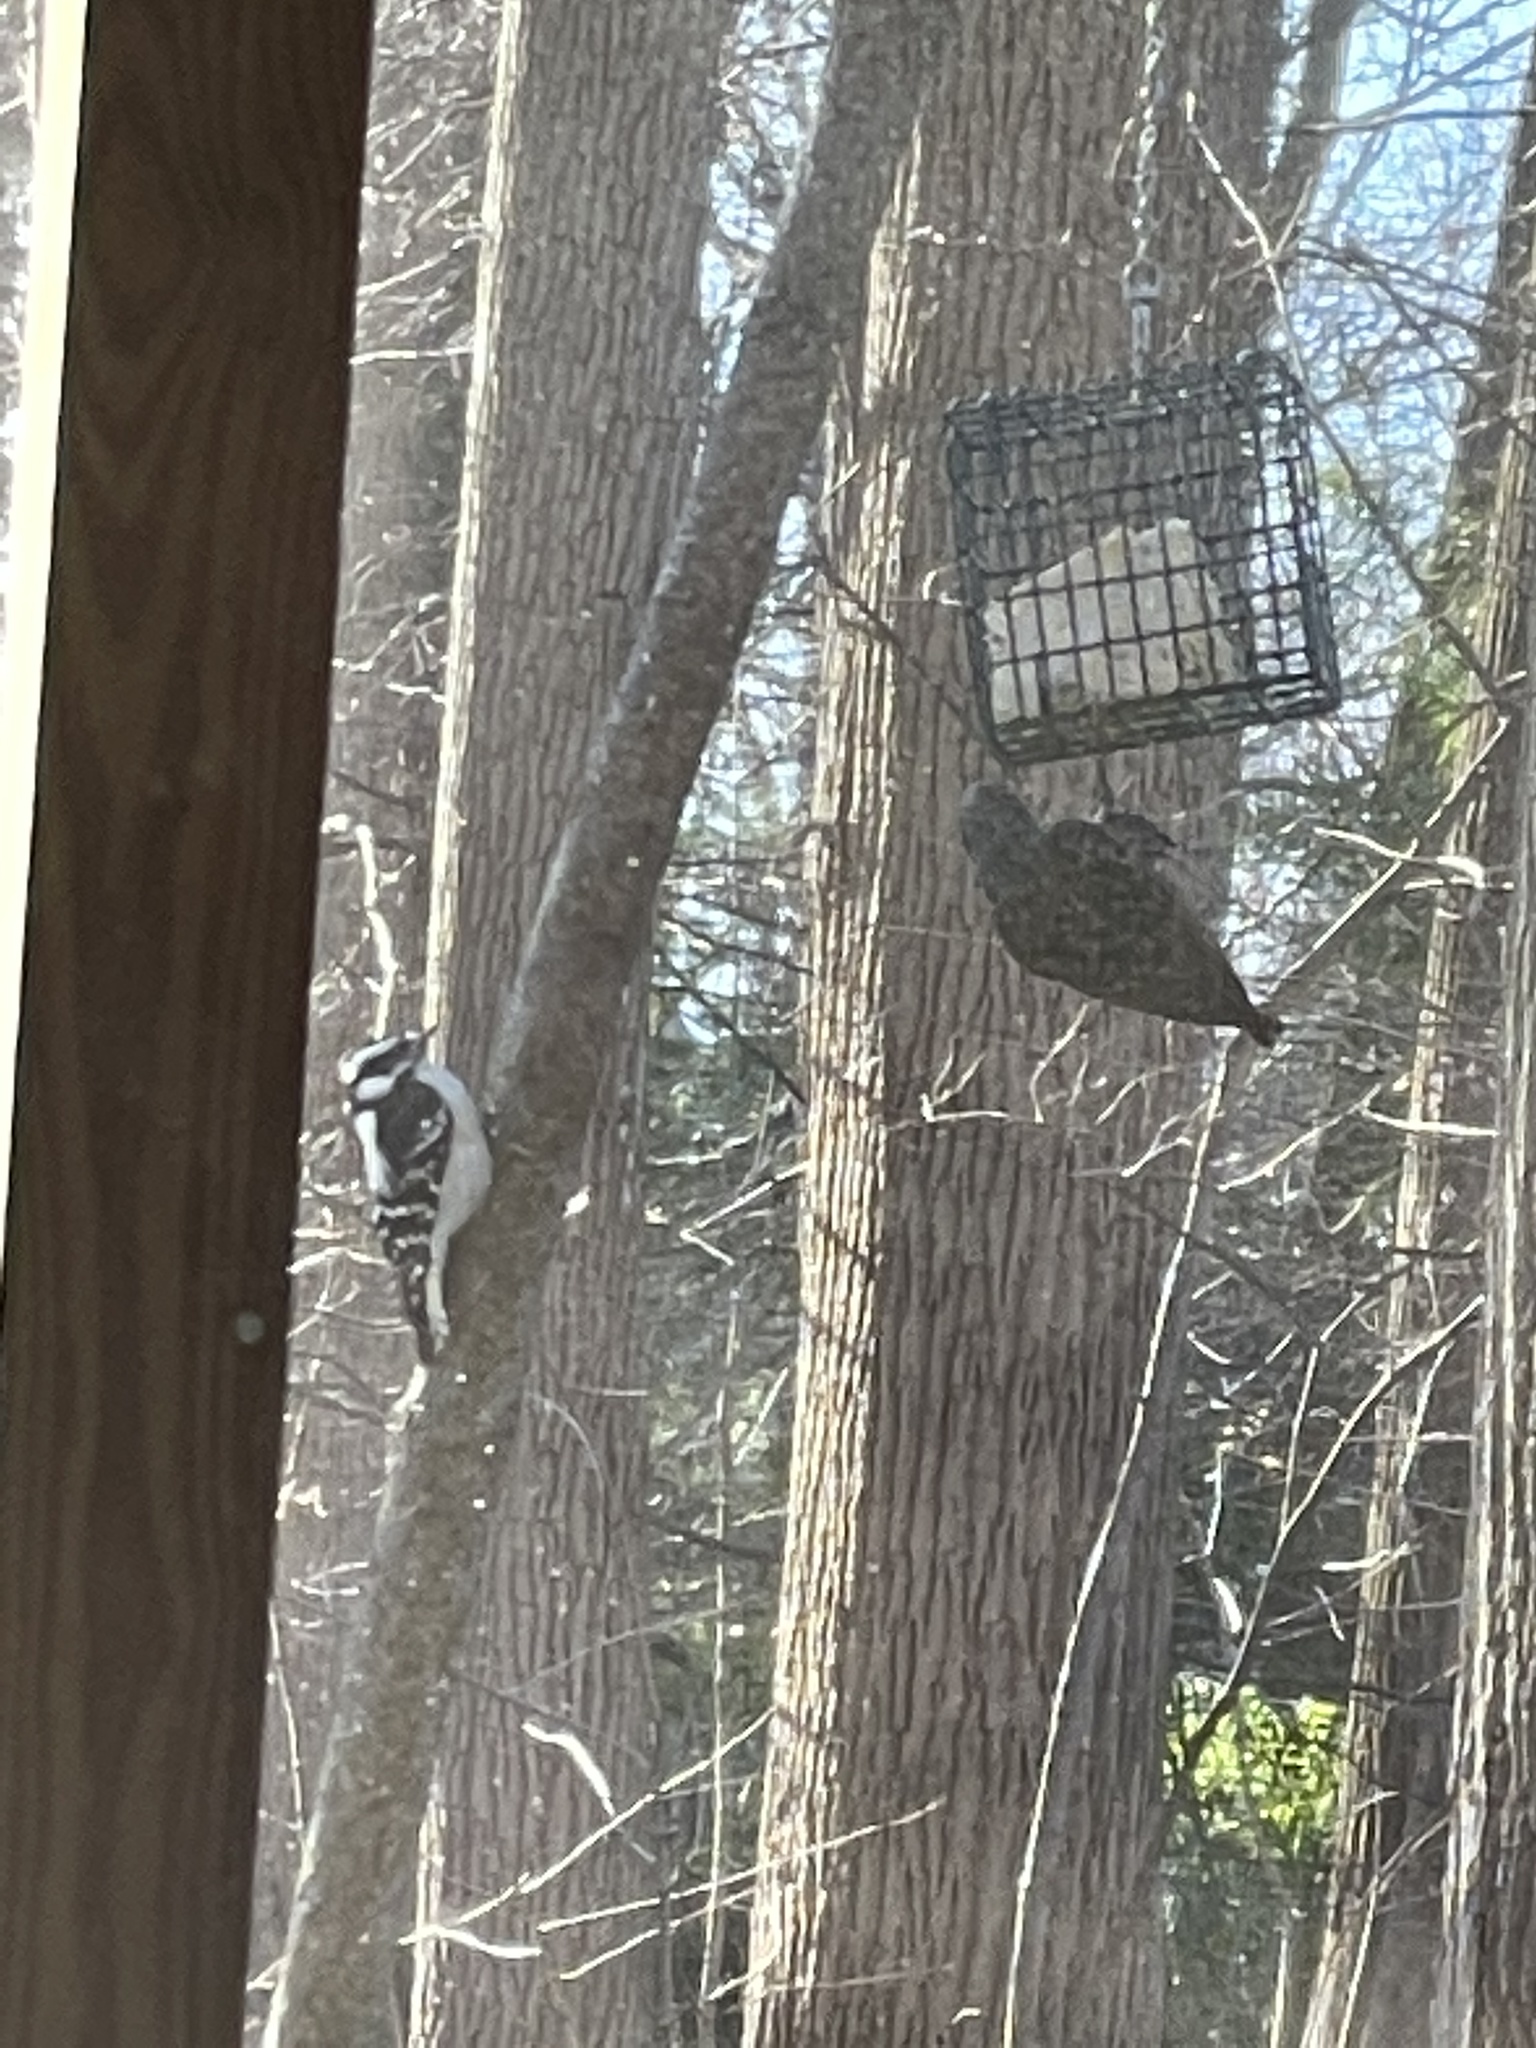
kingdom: Animalia
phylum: Chordata
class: Aves
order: Piciformes
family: Picidae
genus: Dryobates
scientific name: Dryobates pubescens
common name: Downy woodpecker
